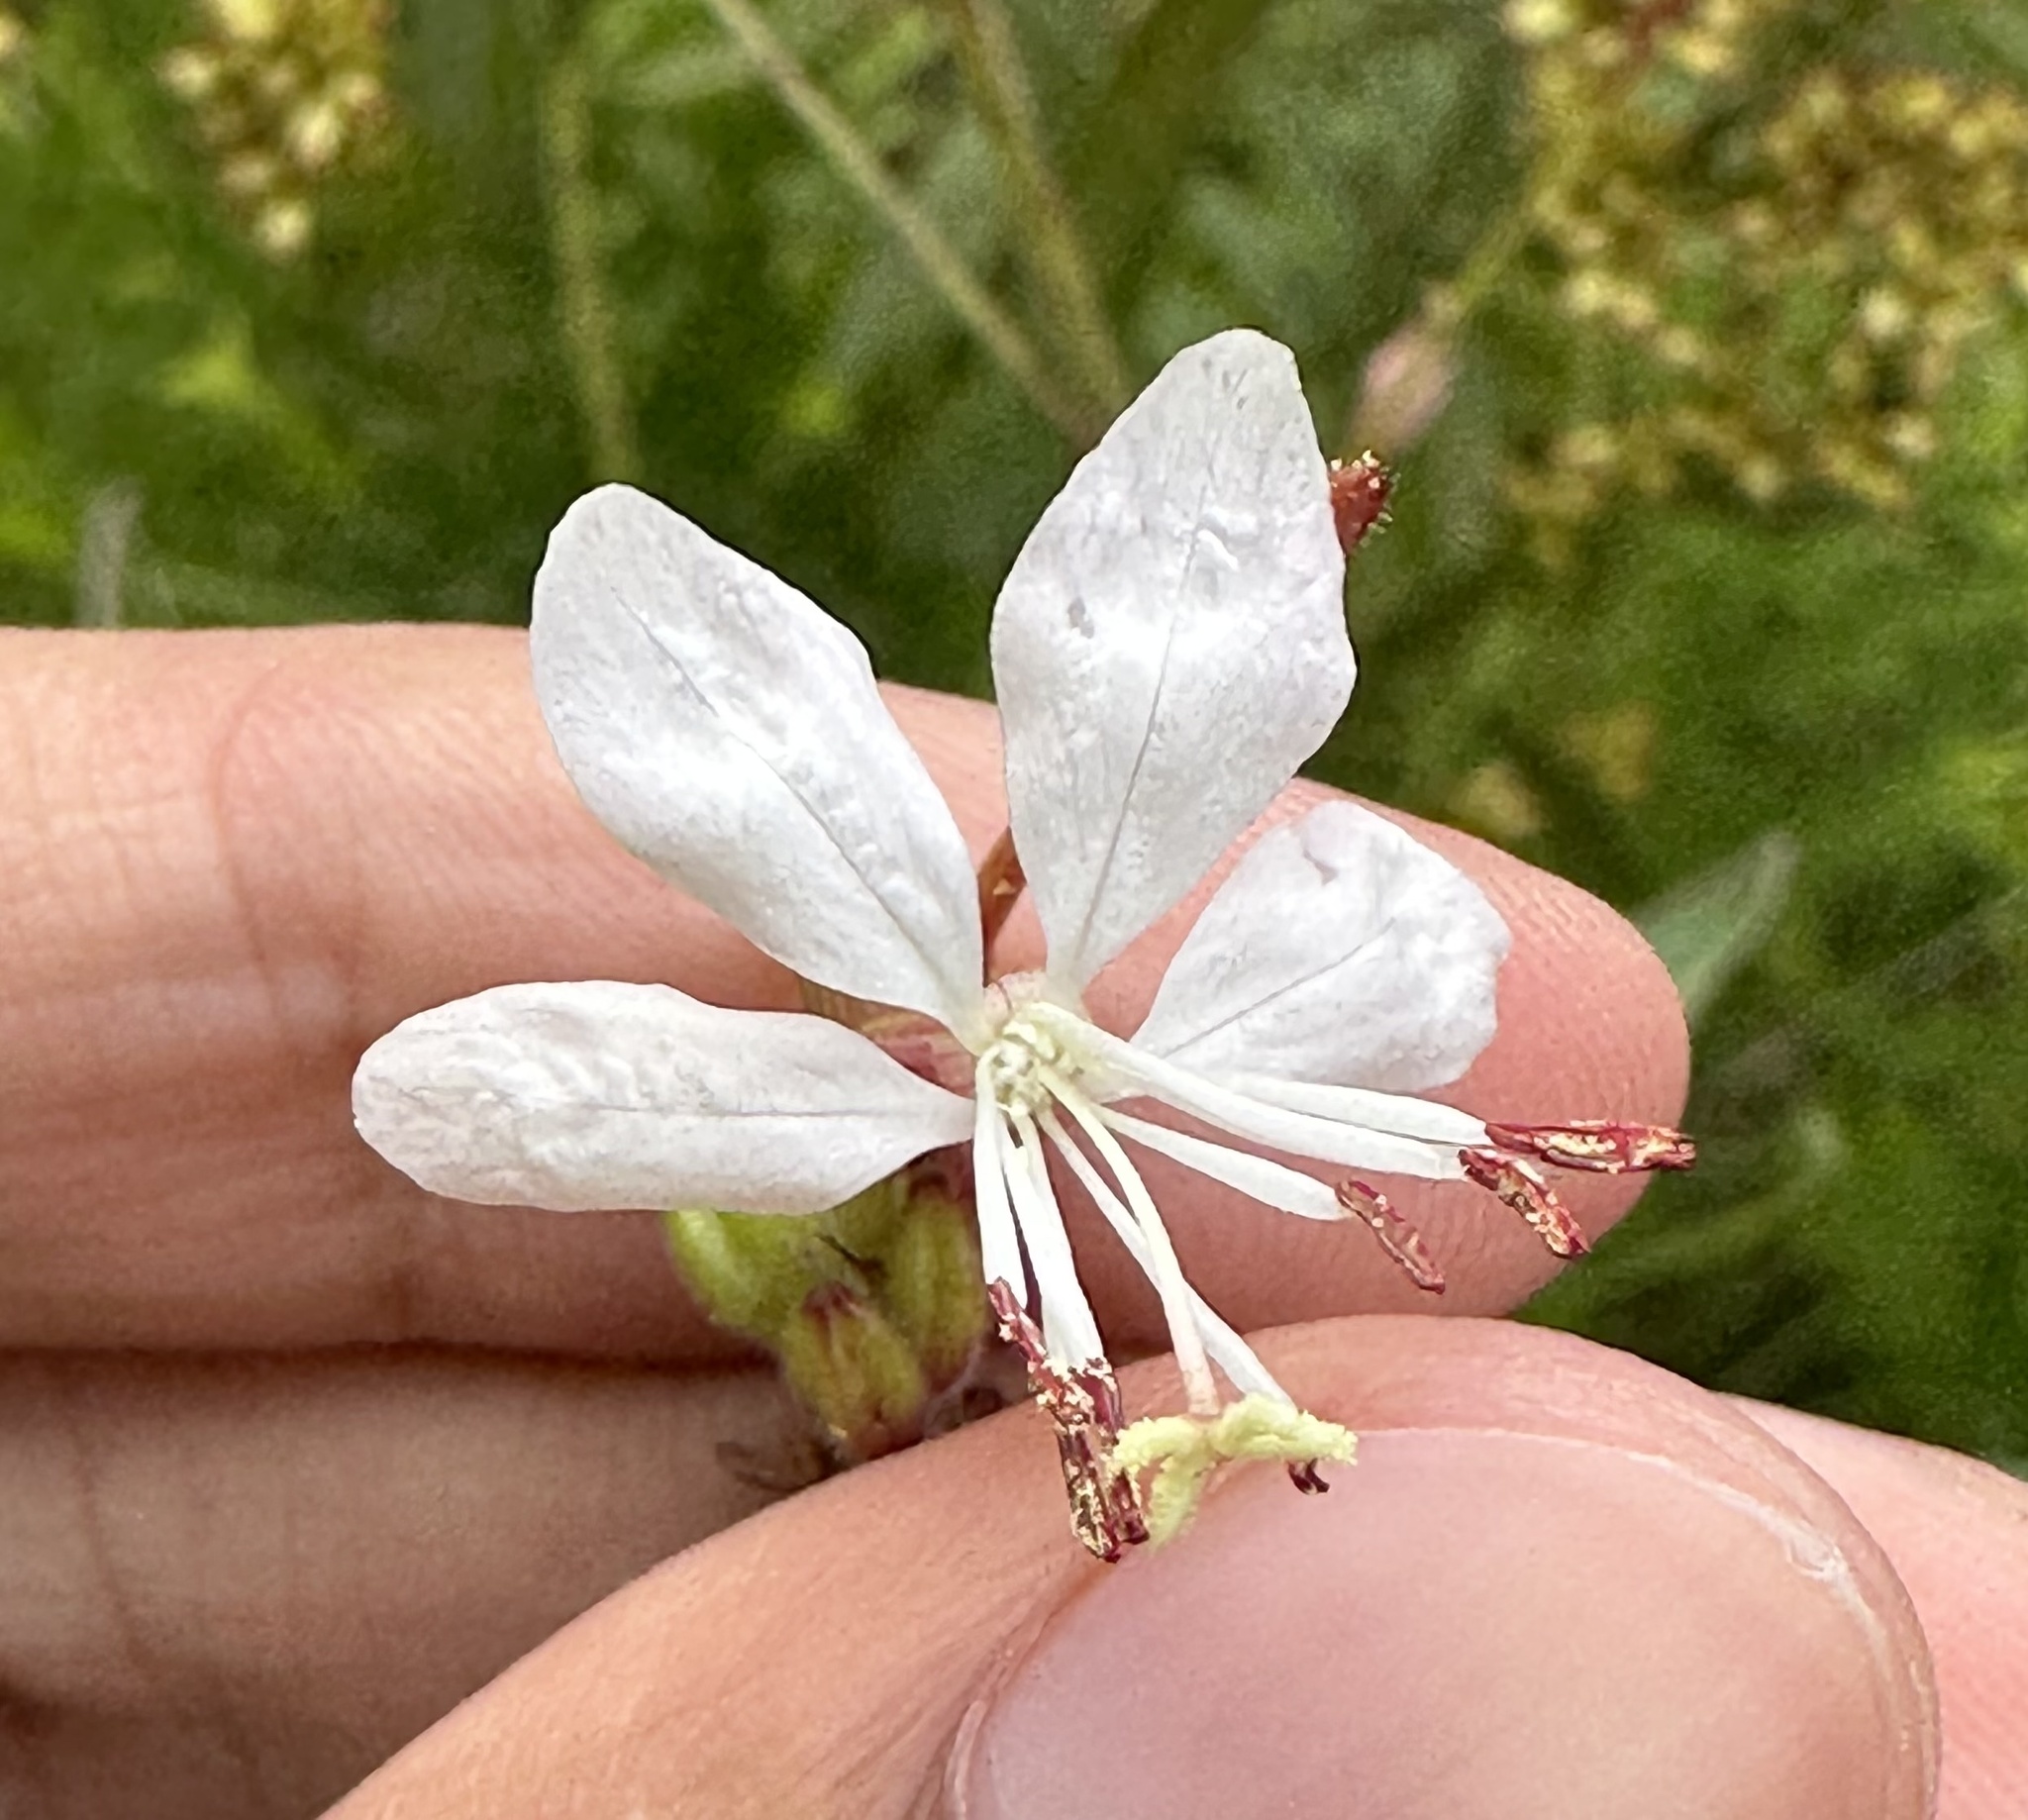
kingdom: Plantae
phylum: Tracheophyta
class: Magnoliopsida
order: Myrtales
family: Onagraceae
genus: Oenothera
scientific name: Oenothera gaura
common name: Biennial beeblossom
